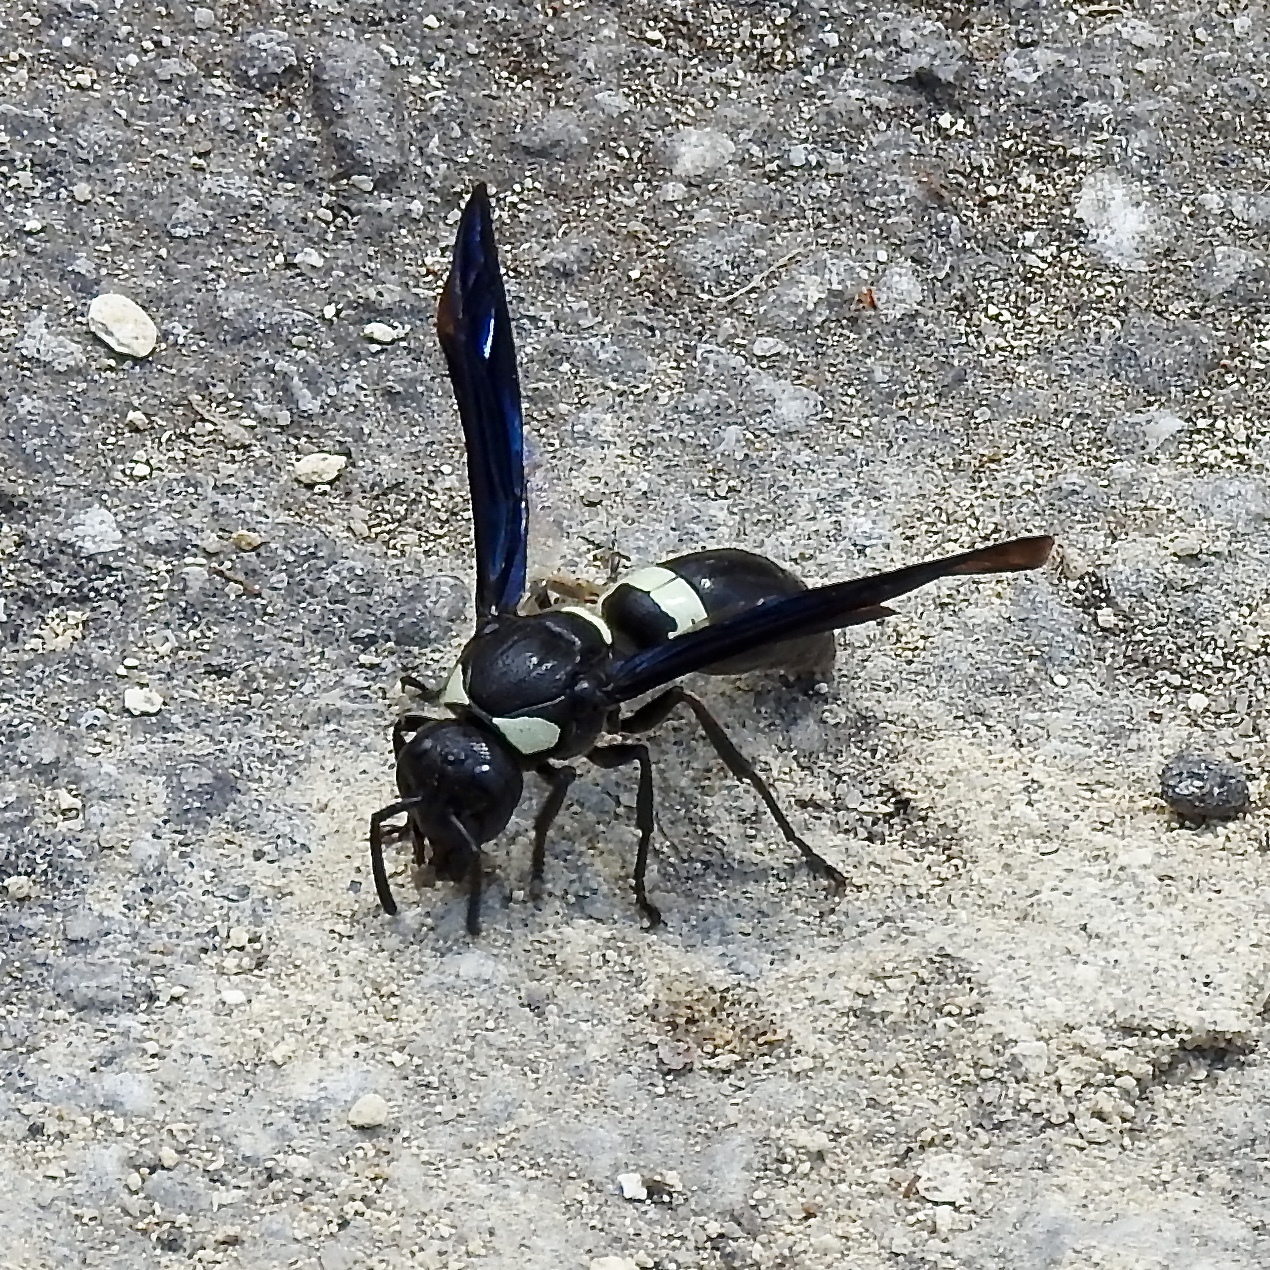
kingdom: Animalia
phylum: Arthropoda
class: Insecta
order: Hymenoptera
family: Eumenidae
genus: Monobia
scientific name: Monobia quadridens
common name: Four-toothed mason wasp
